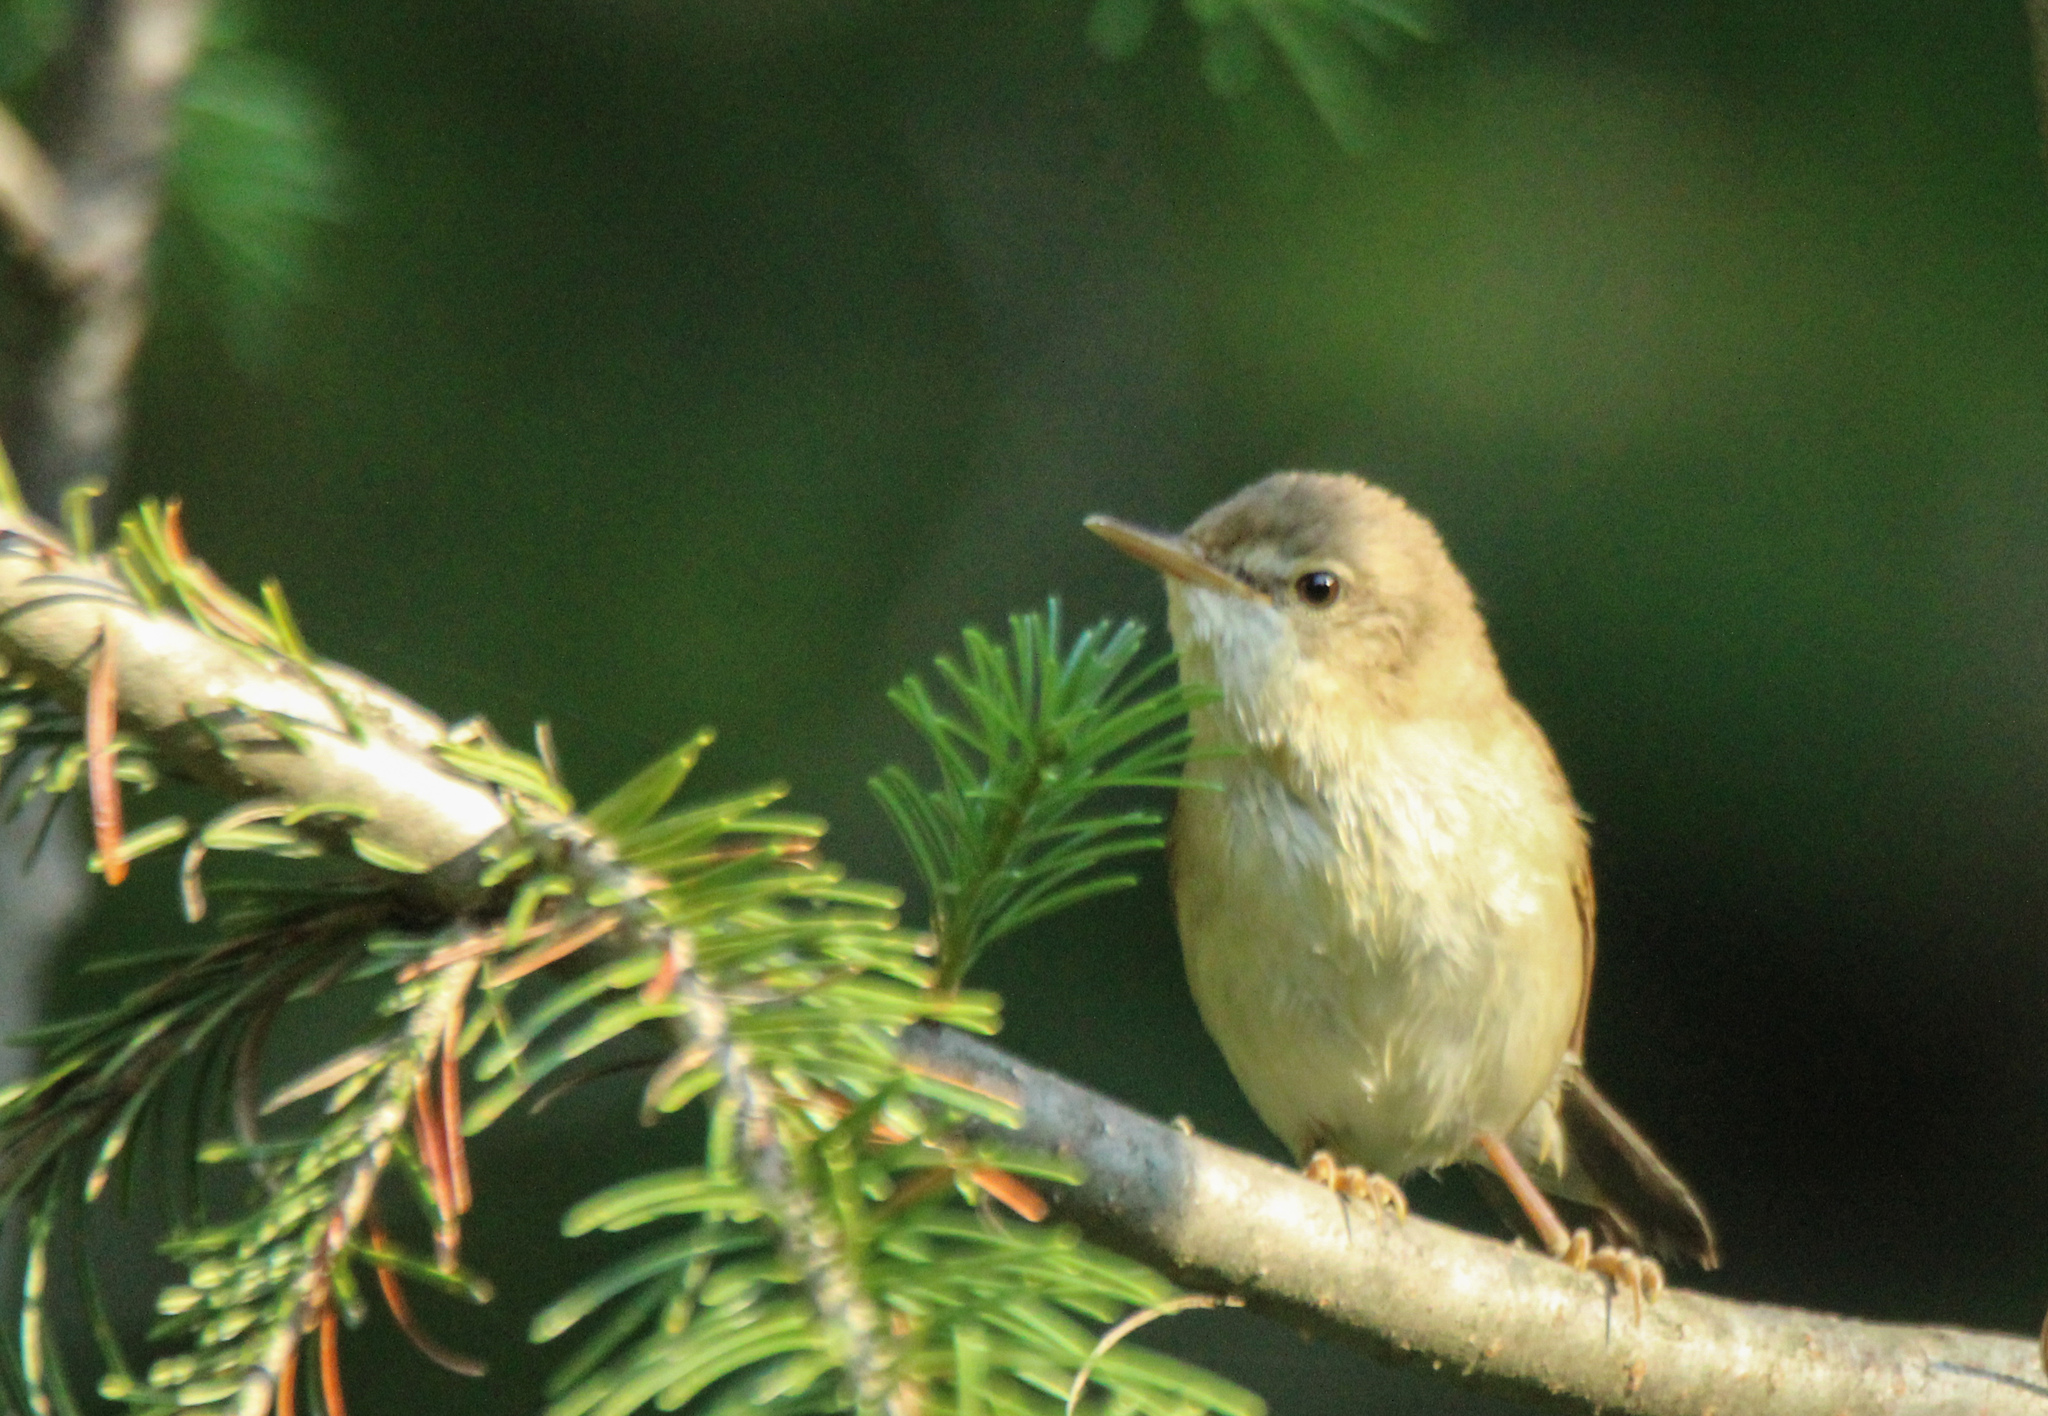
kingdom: Animalia
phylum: Chordata
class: Aves
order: Passeriformes
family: Acrocephalidae
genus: Acrocephalus
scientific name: Acrocephalus dumetorum
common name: Blyth's reed warbler
